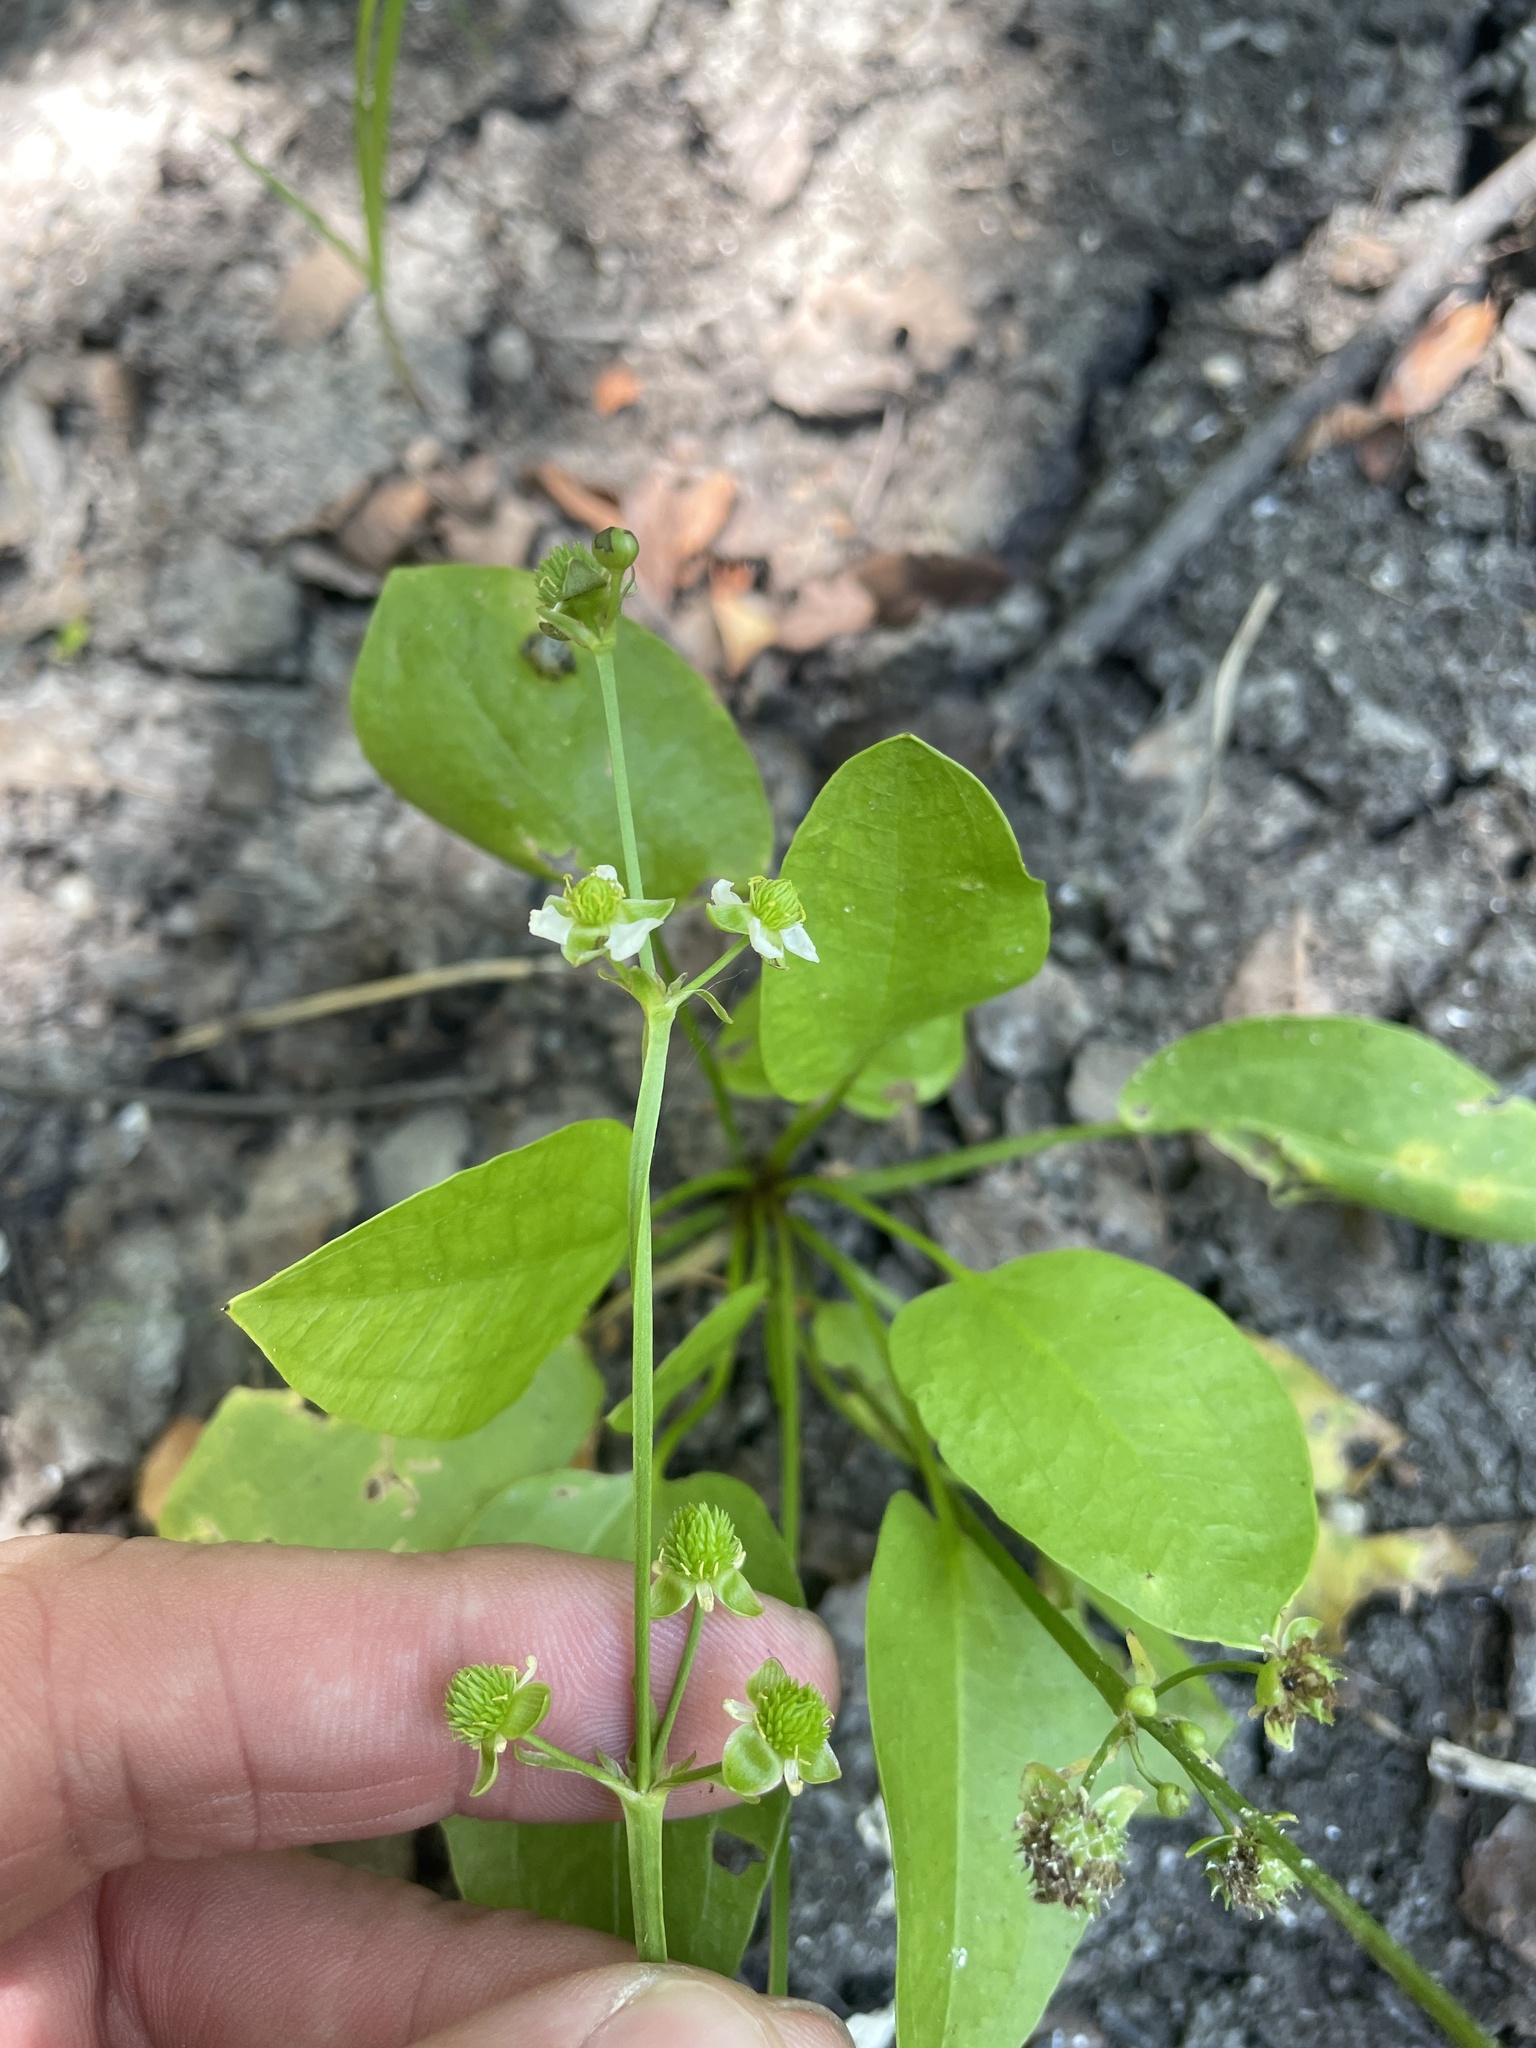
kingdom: Plantae
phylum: Tracheophyta
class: Liliopsida
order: Alismatales
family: Alismataceae
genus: Echinodorus
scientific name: Echinodorus berteroi
